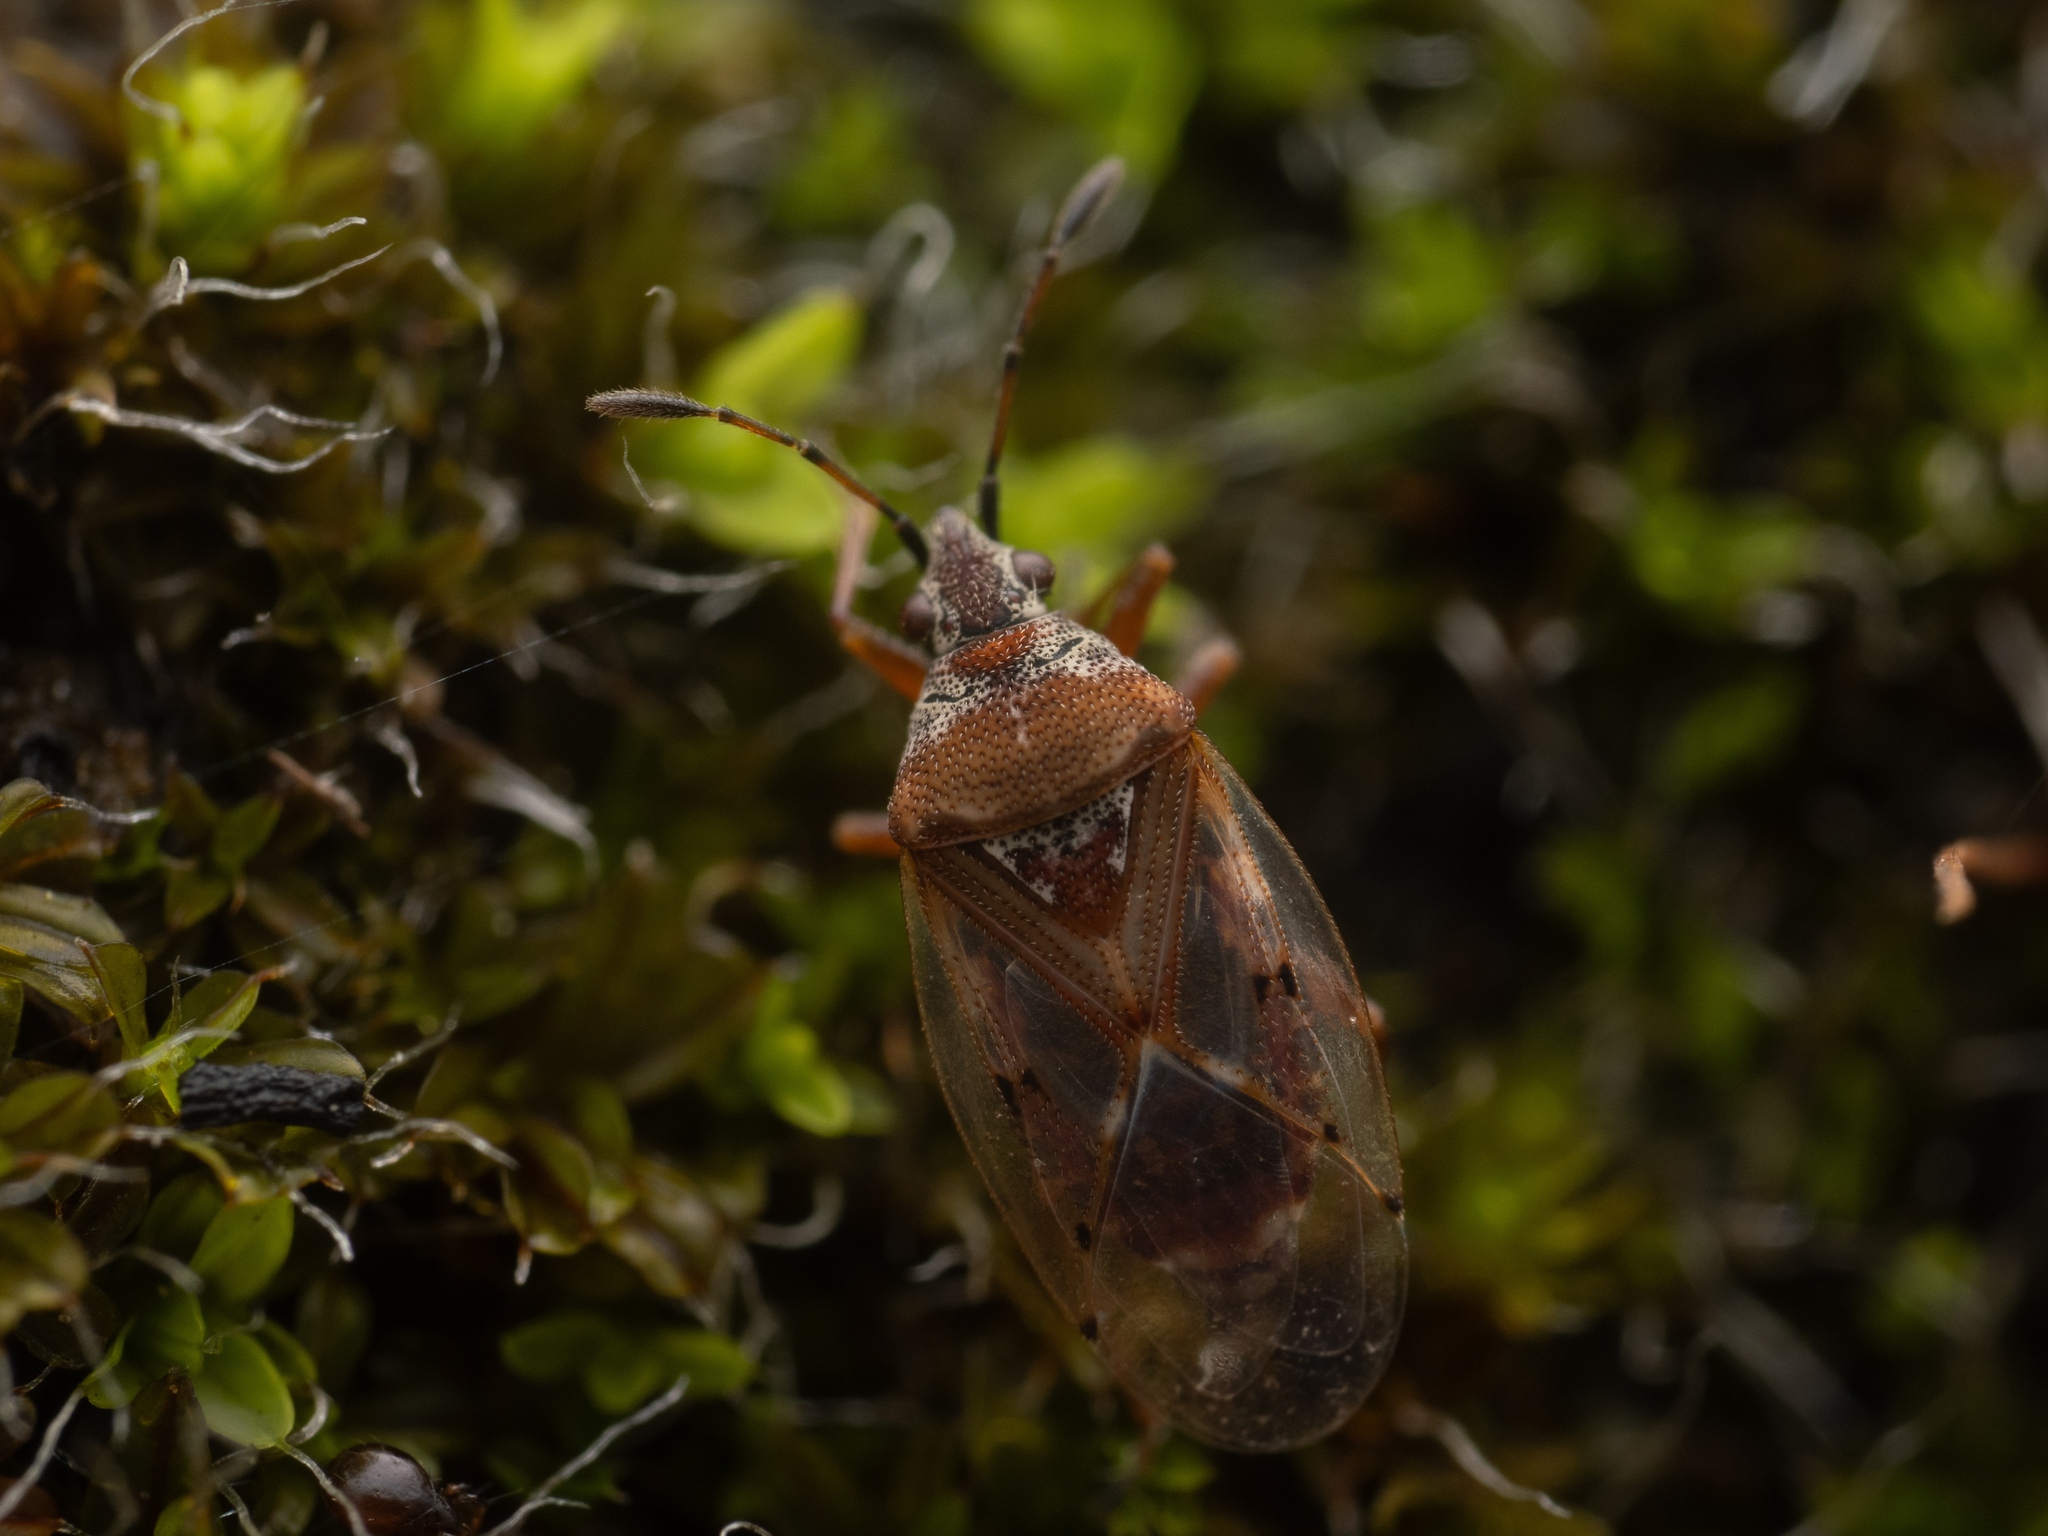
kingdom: Animalia
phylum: Arthropoda
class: Insecta
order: Hemiptera
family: Lygaeidae
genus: Kleidocerys
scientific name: Kleidocerys resedae
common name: Birch catkin bug
